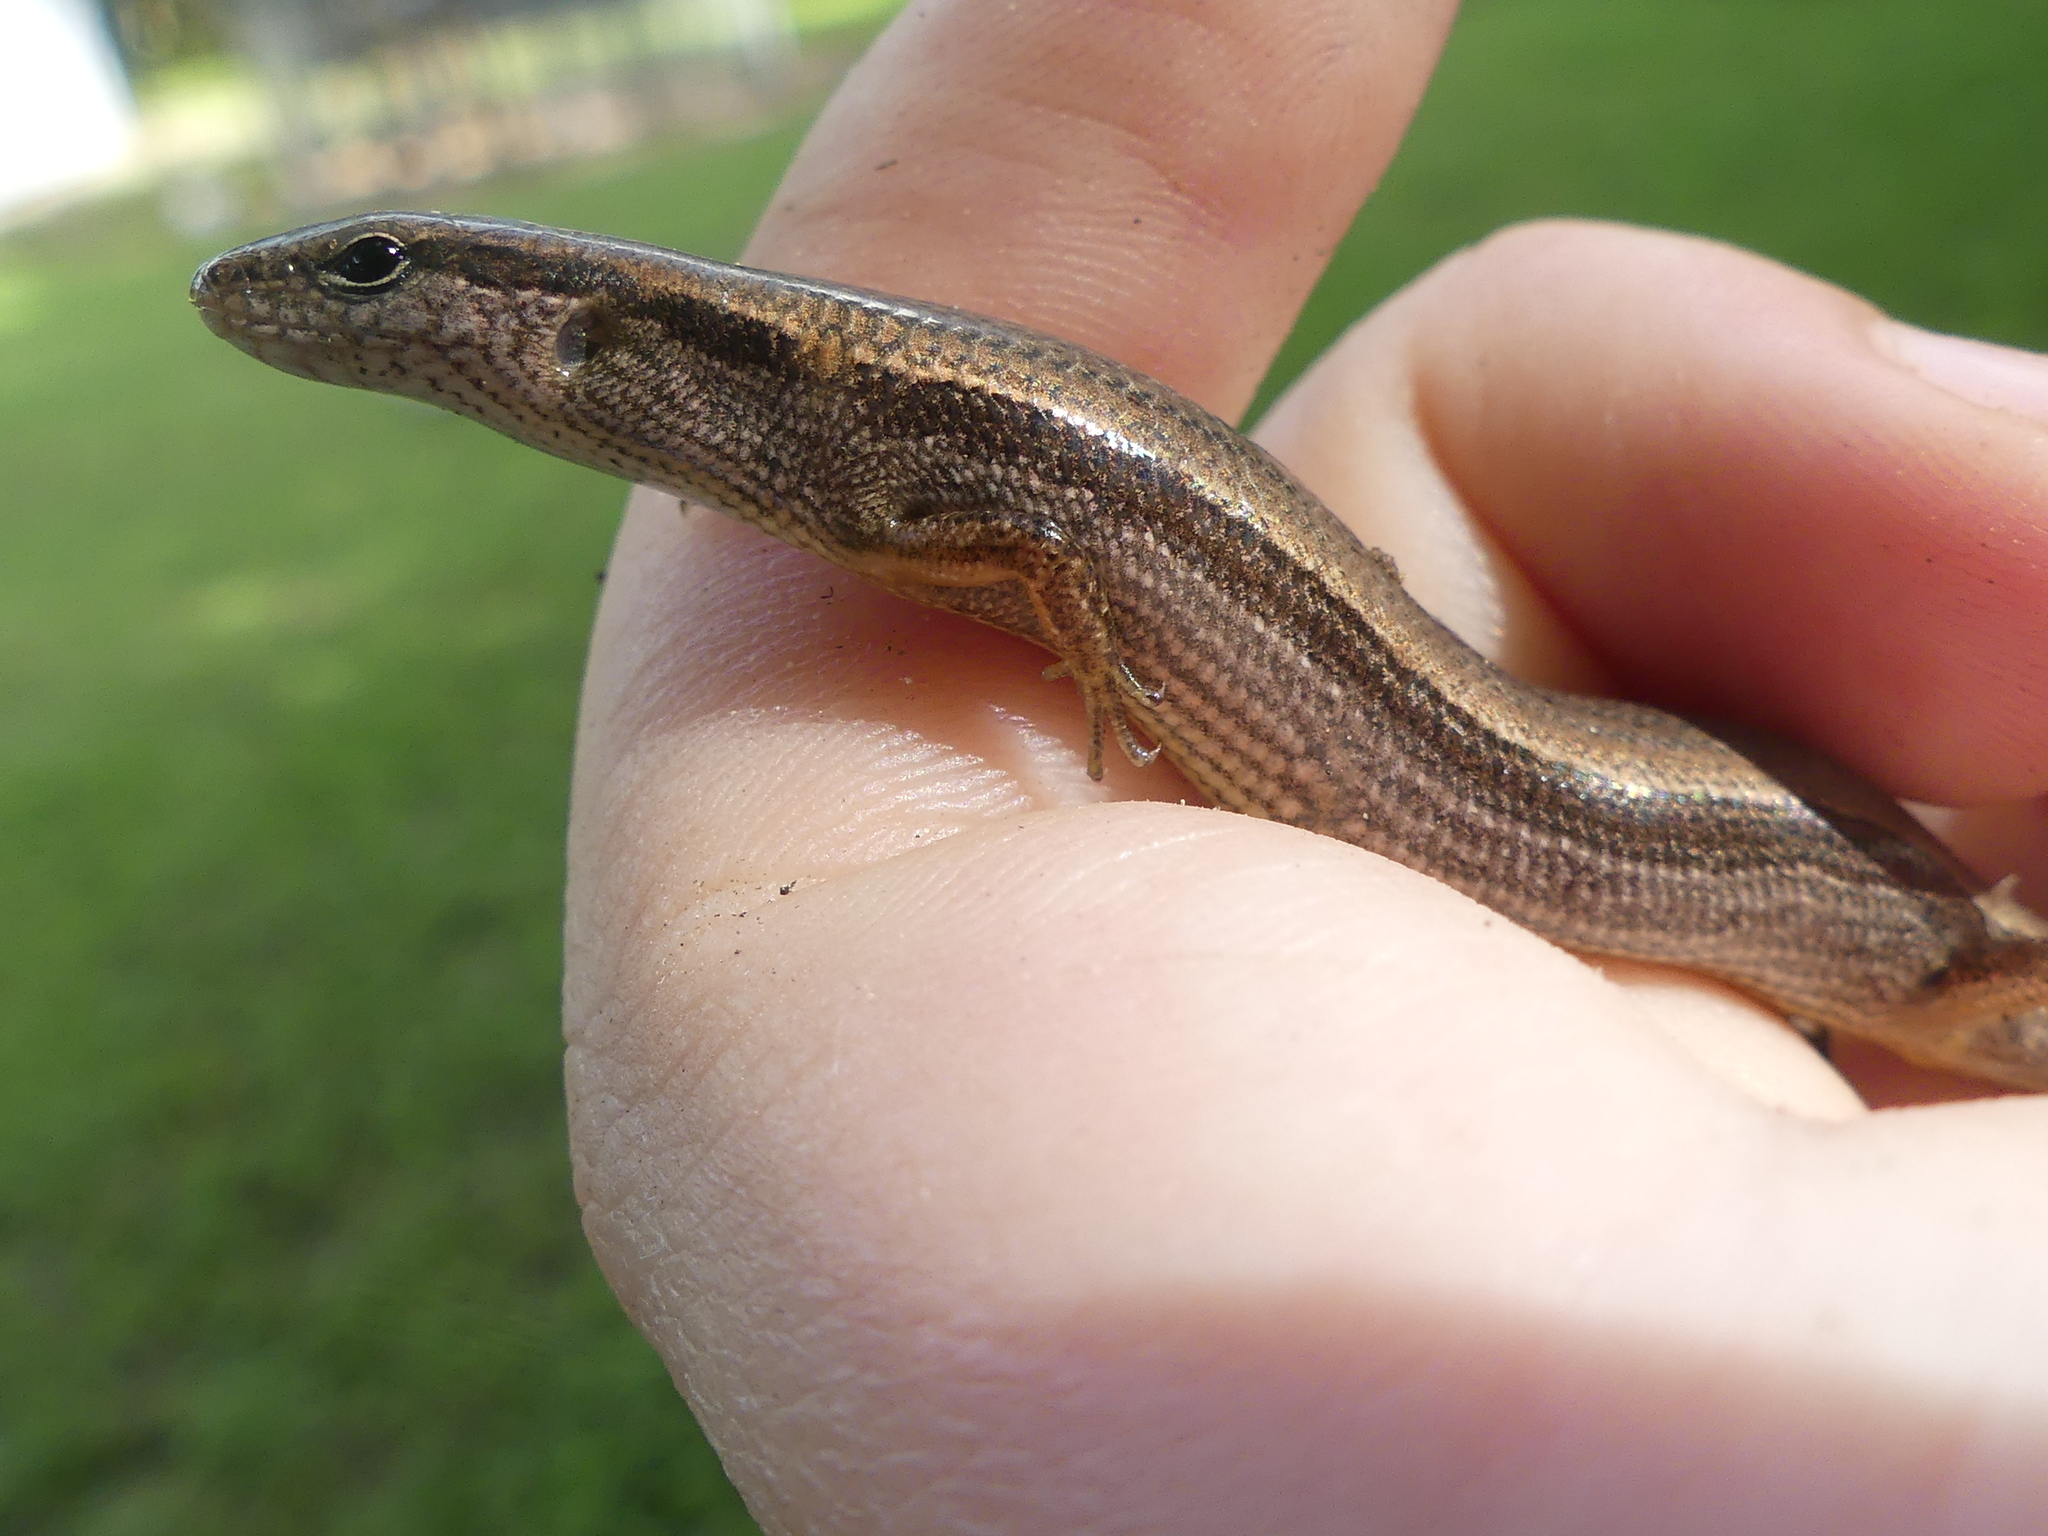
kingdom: Animalia
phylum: Chordata
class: Squamata
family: Scincidae
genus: Scincella
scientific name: Scincella lateralis
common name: Ground skink
